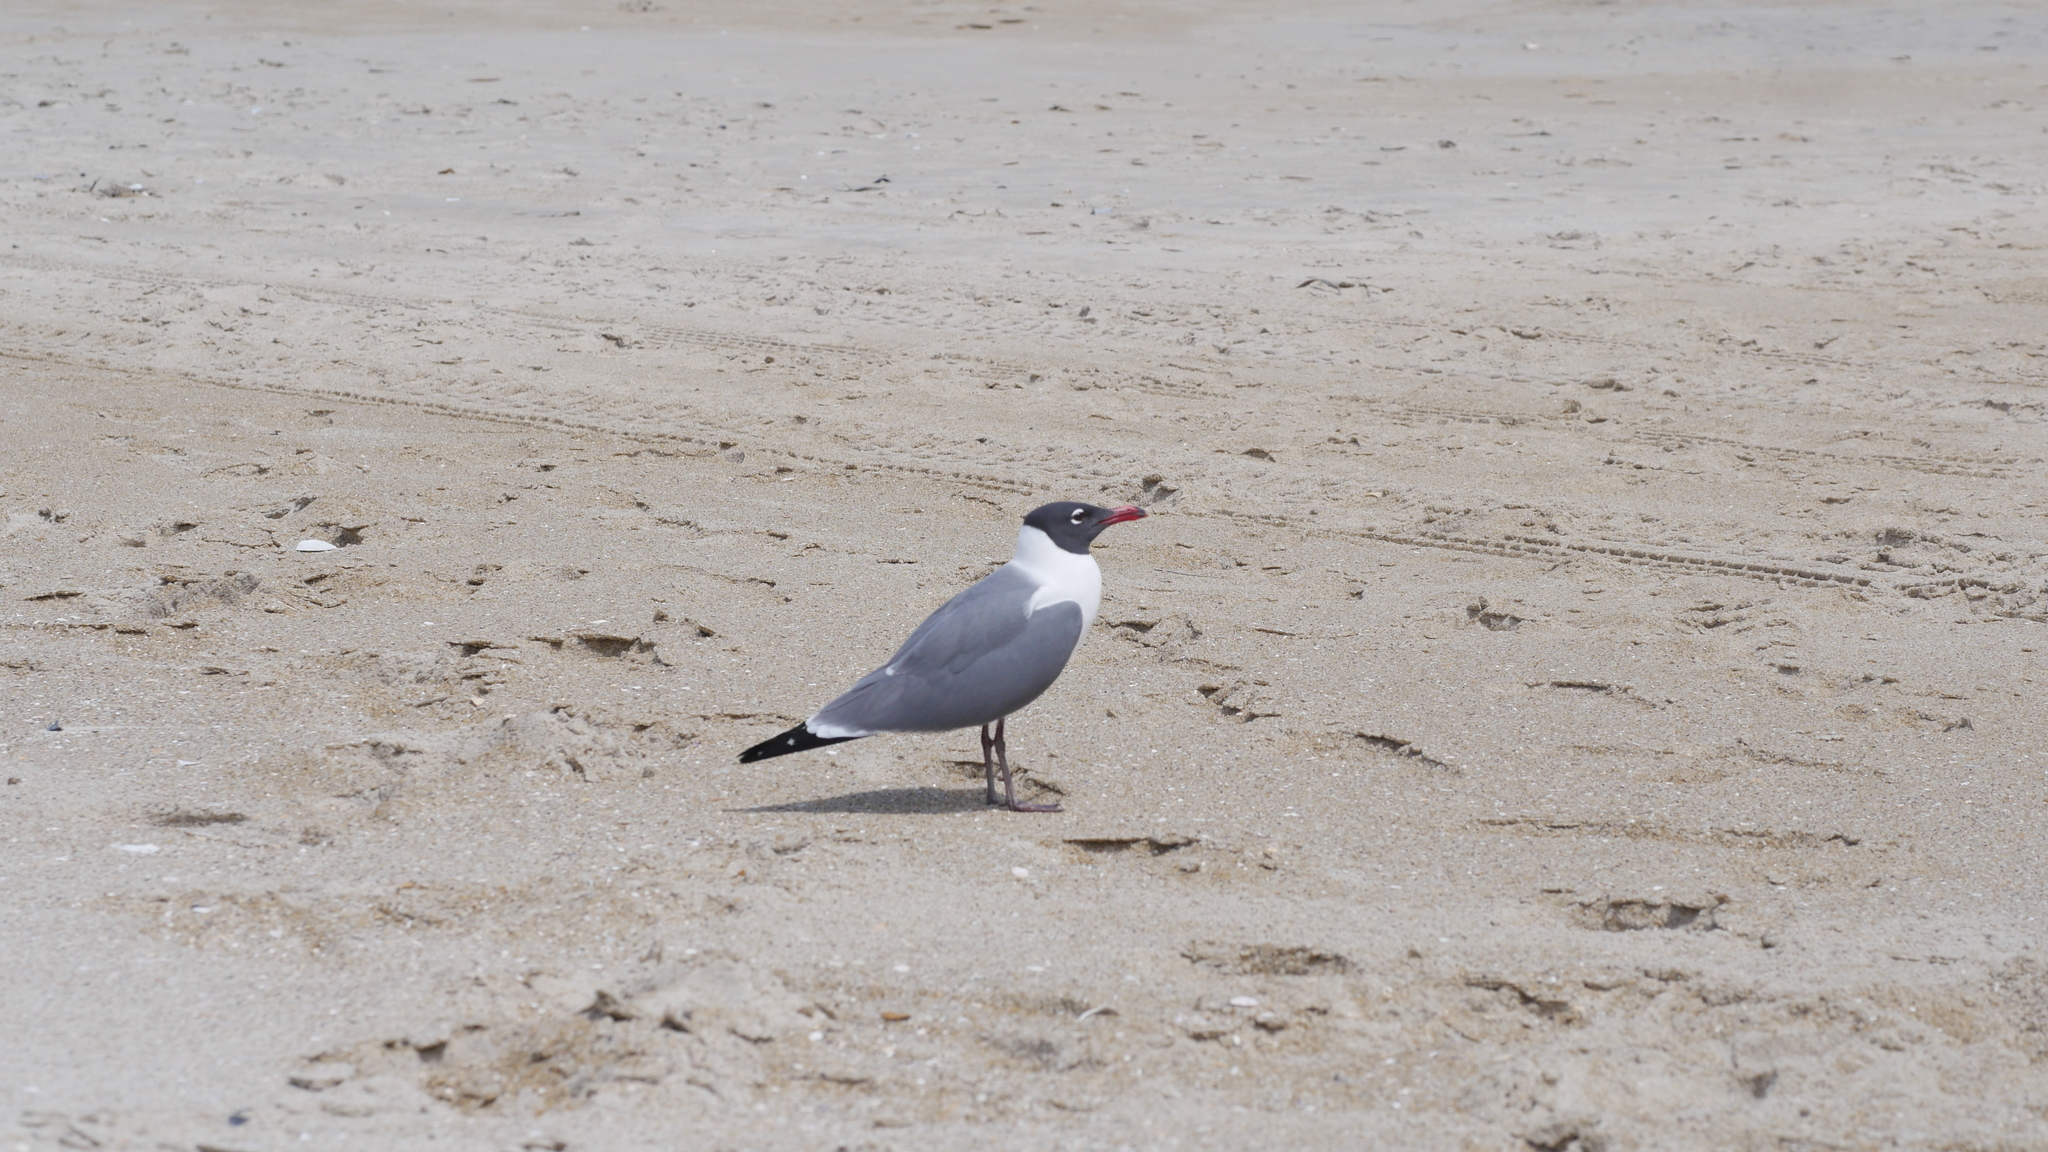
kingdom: Animalia
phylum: Chordata
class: Aves
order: Charadriiformes
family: Laridae
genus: Leucophaeus
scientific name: Leucophaeus atricilla
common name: Laughing gull
